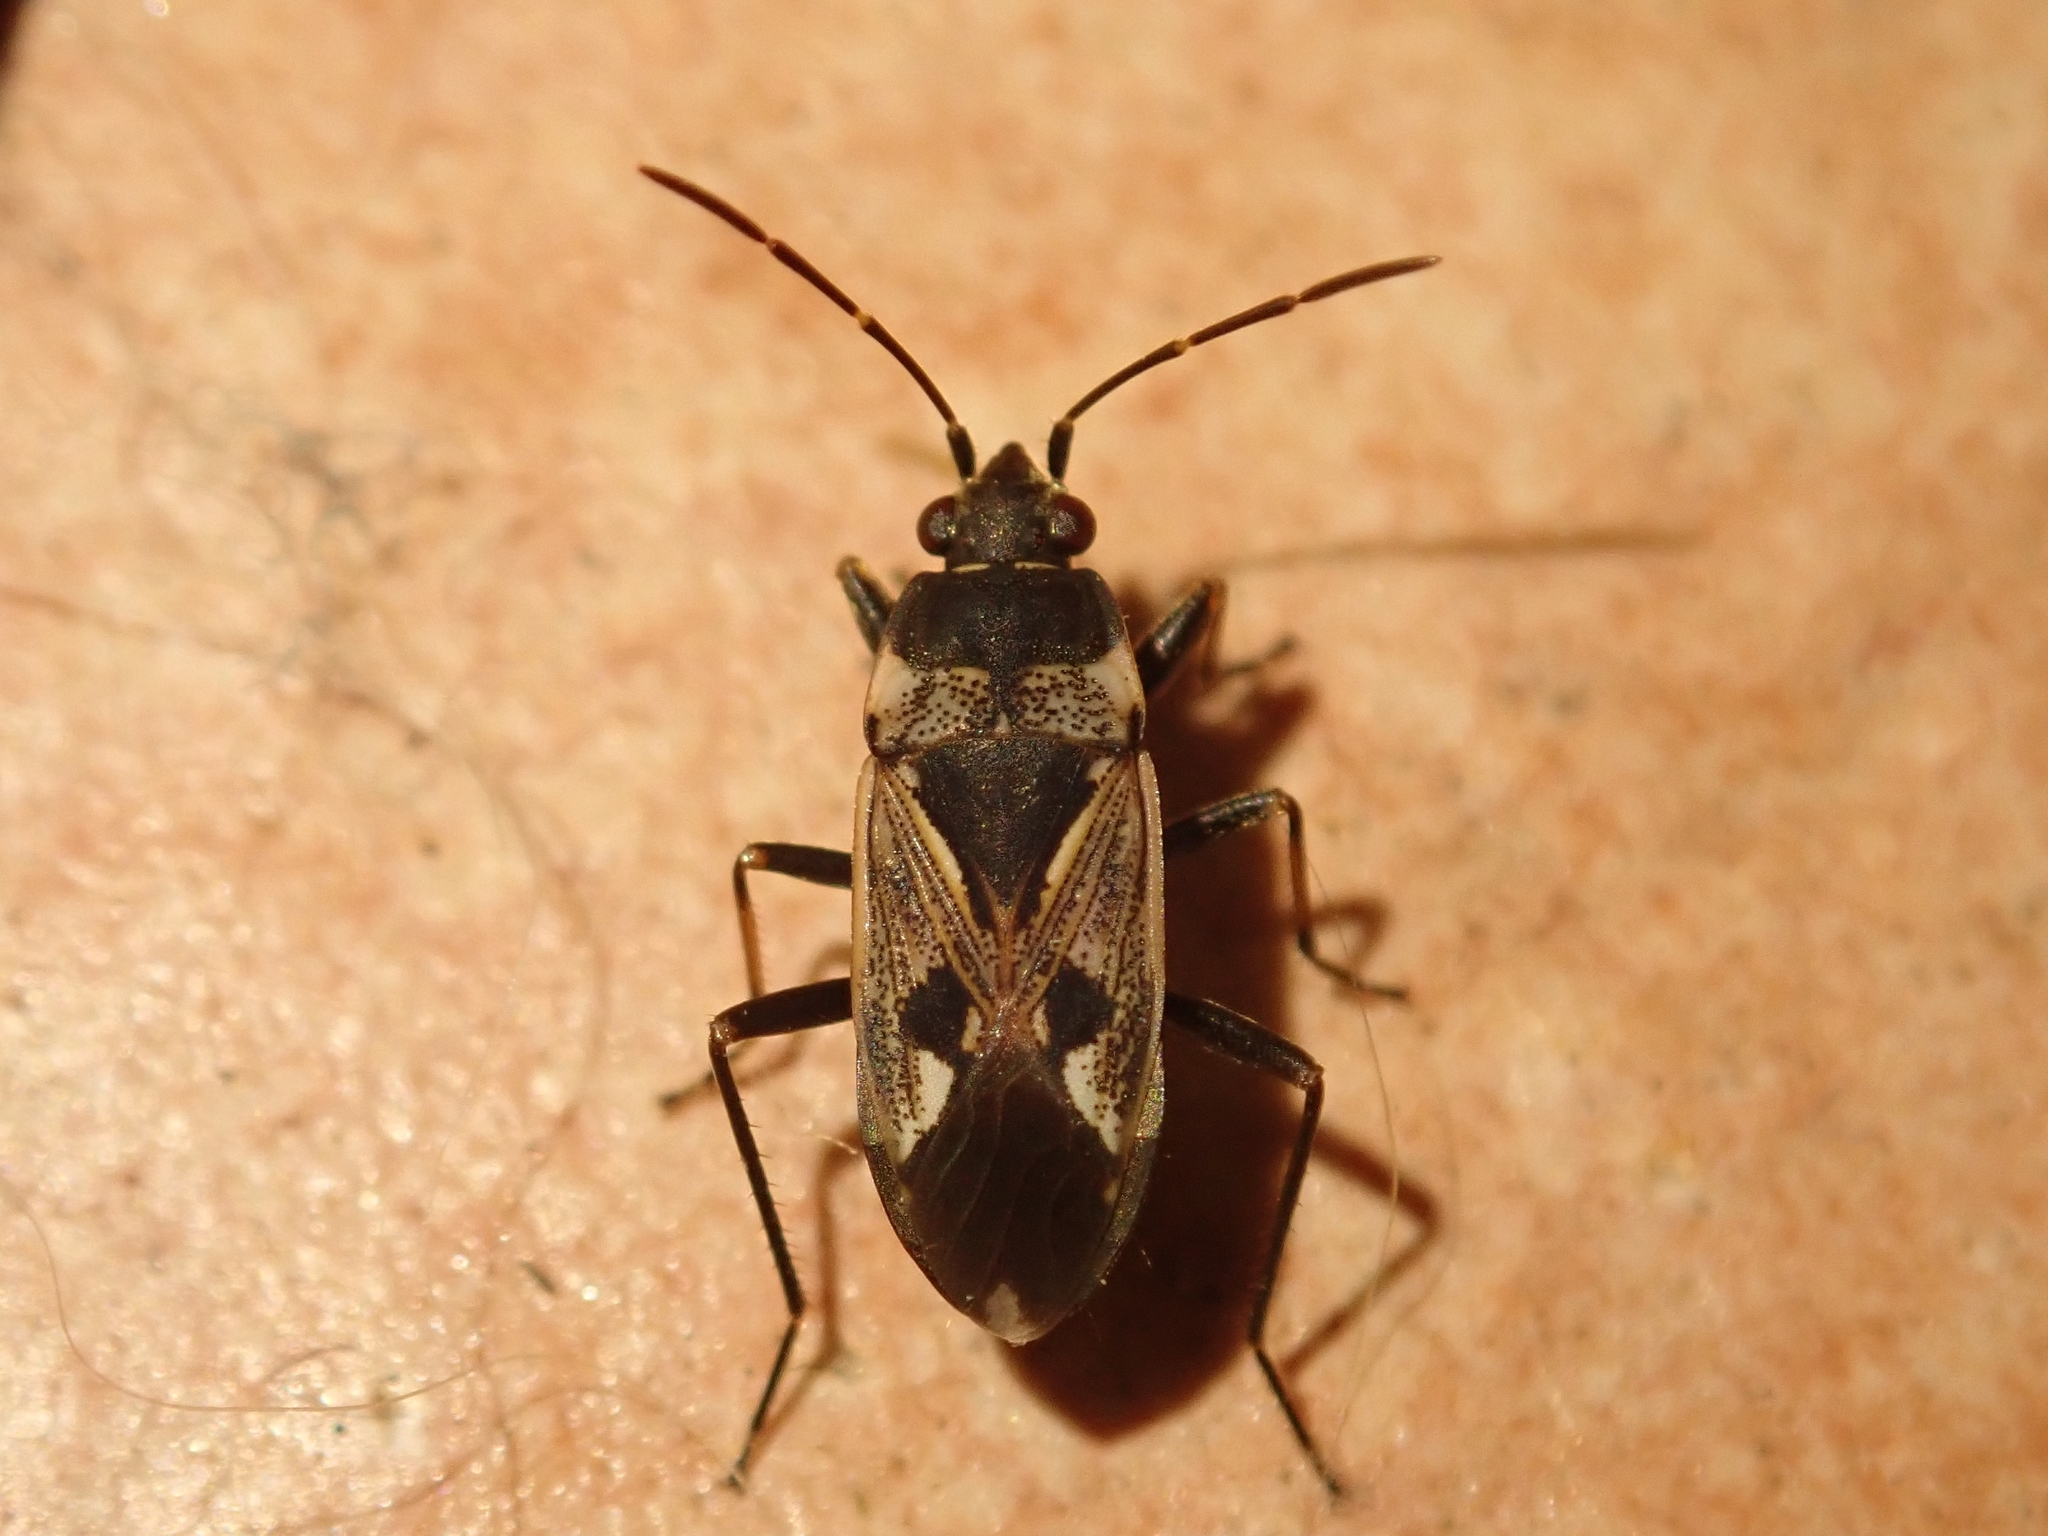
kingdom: Animalia
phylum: Arthropoda
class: Insecta
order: Hemiptera
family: Rhyparochromidae
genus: Rhyparochromus
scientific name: Rhyparochromus vulgaris
